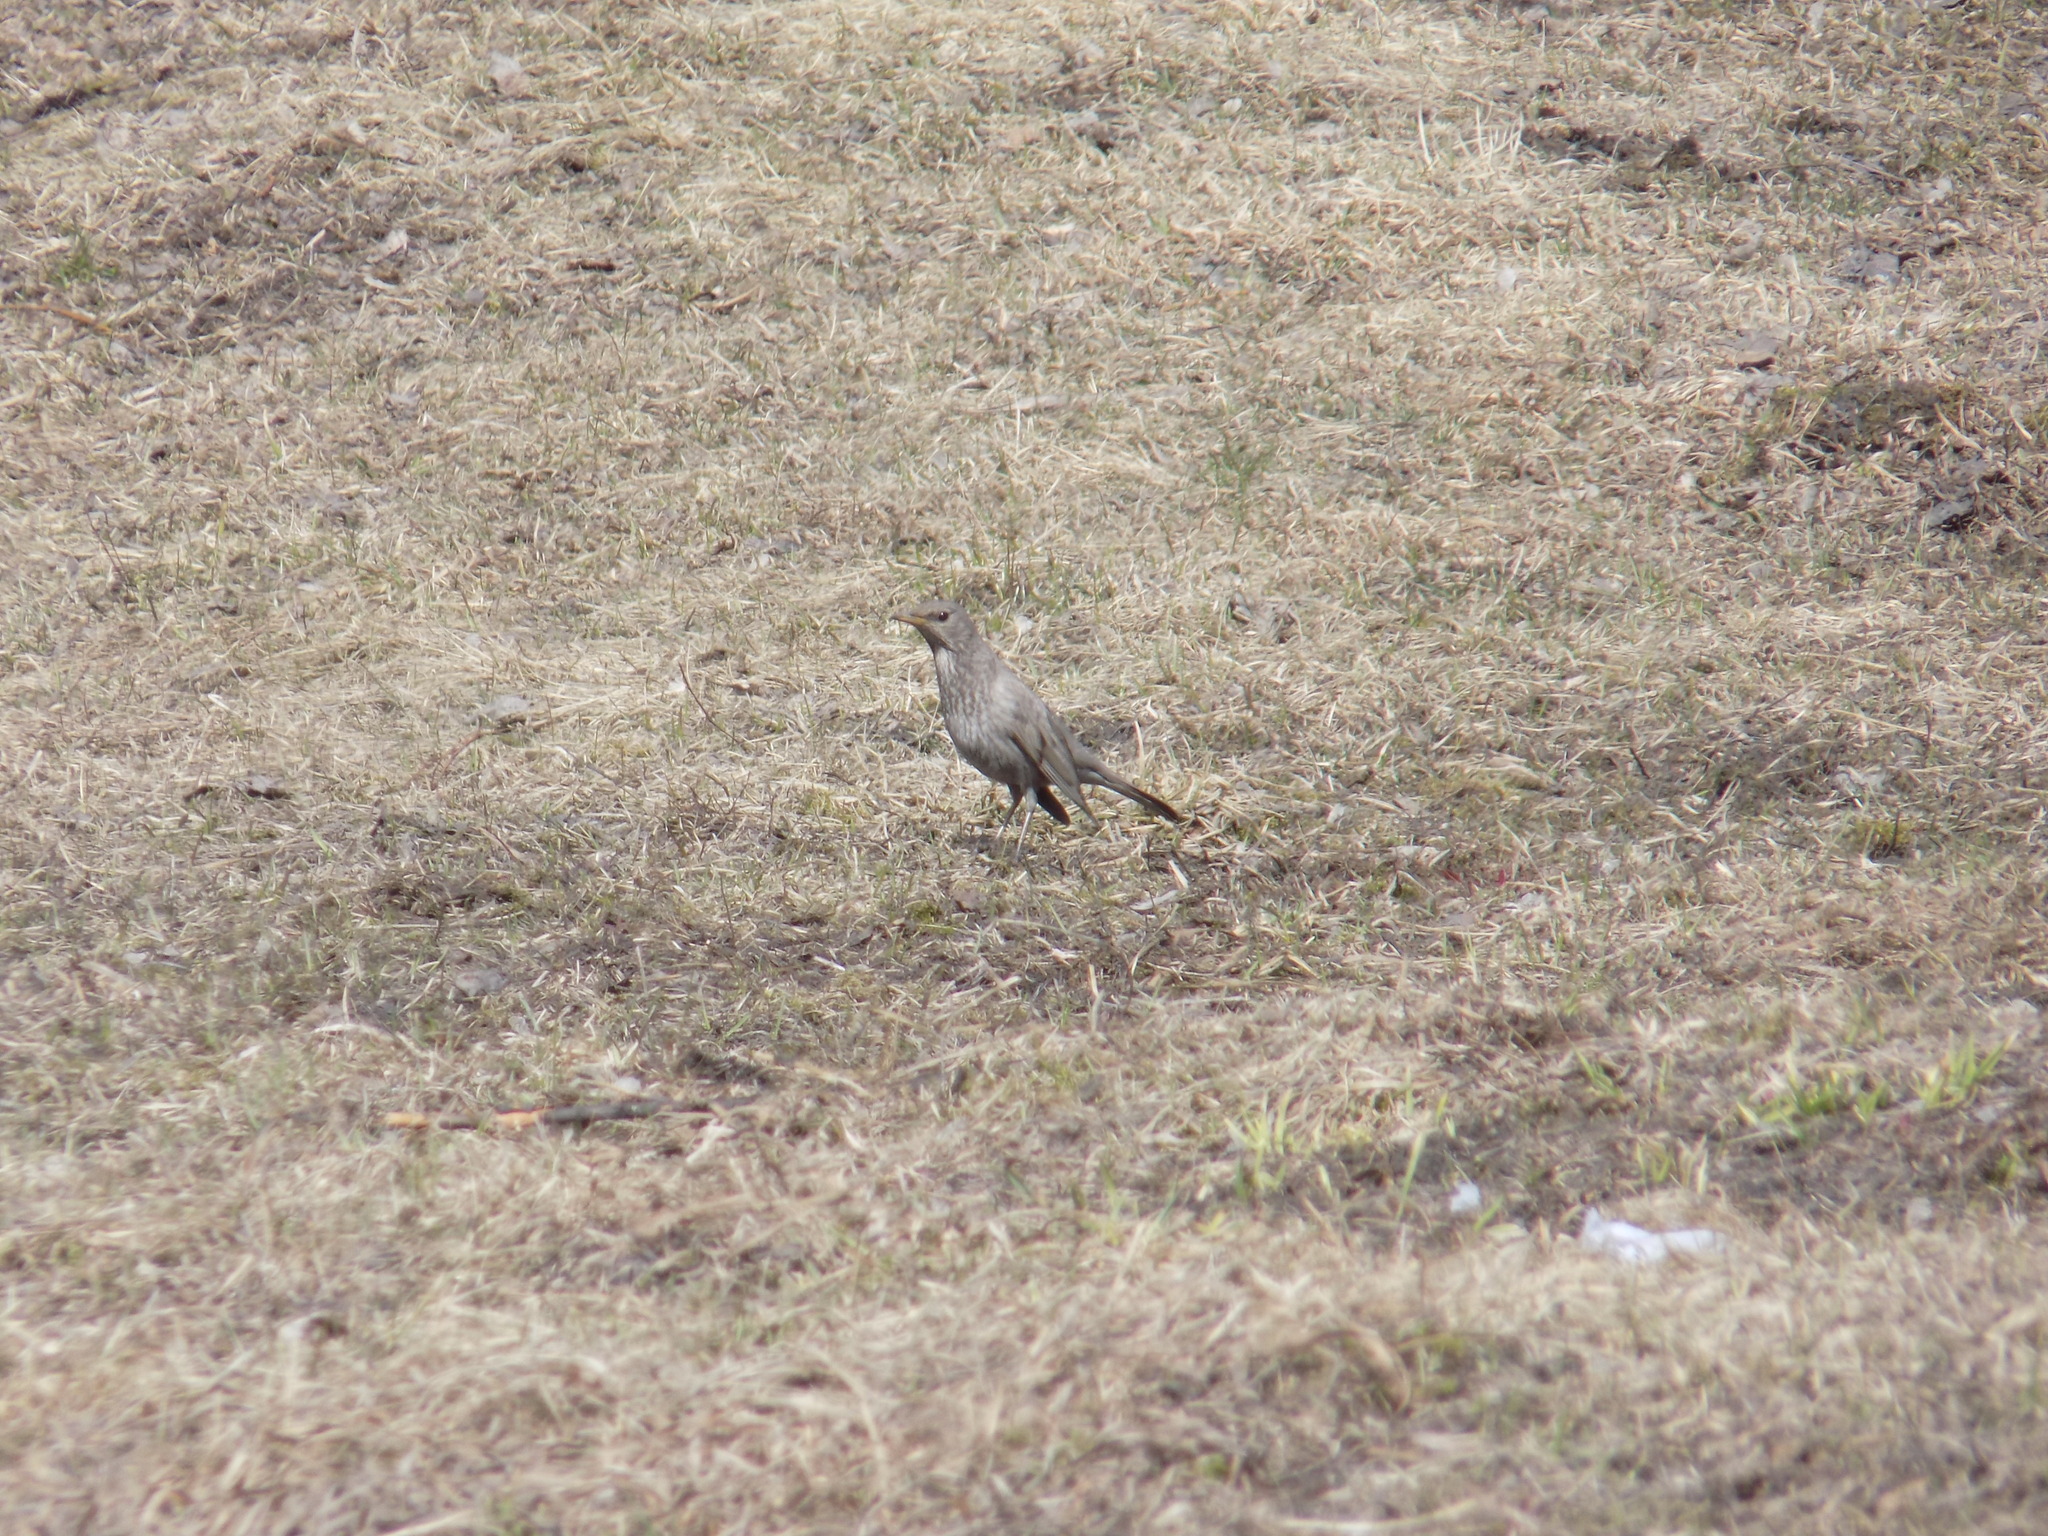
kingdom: Animalia
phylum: Chordata
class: Aves
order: Passeriformes
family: Turdidae
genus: Turdus
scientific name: Turdus atrogularis
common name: Black-throated thrush
